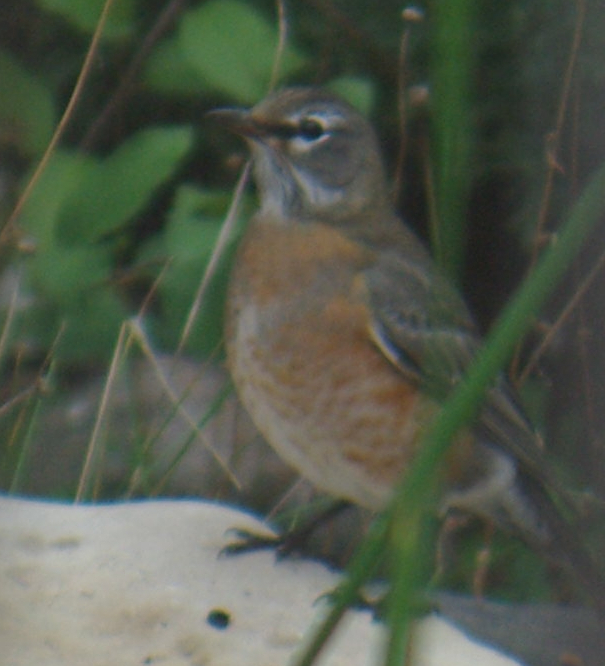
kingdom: Animalia
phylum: Chordata
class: Aves
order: Passeriformes
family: Turdidae
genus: Turdus
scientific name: Turdus migratorius
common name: American robin
